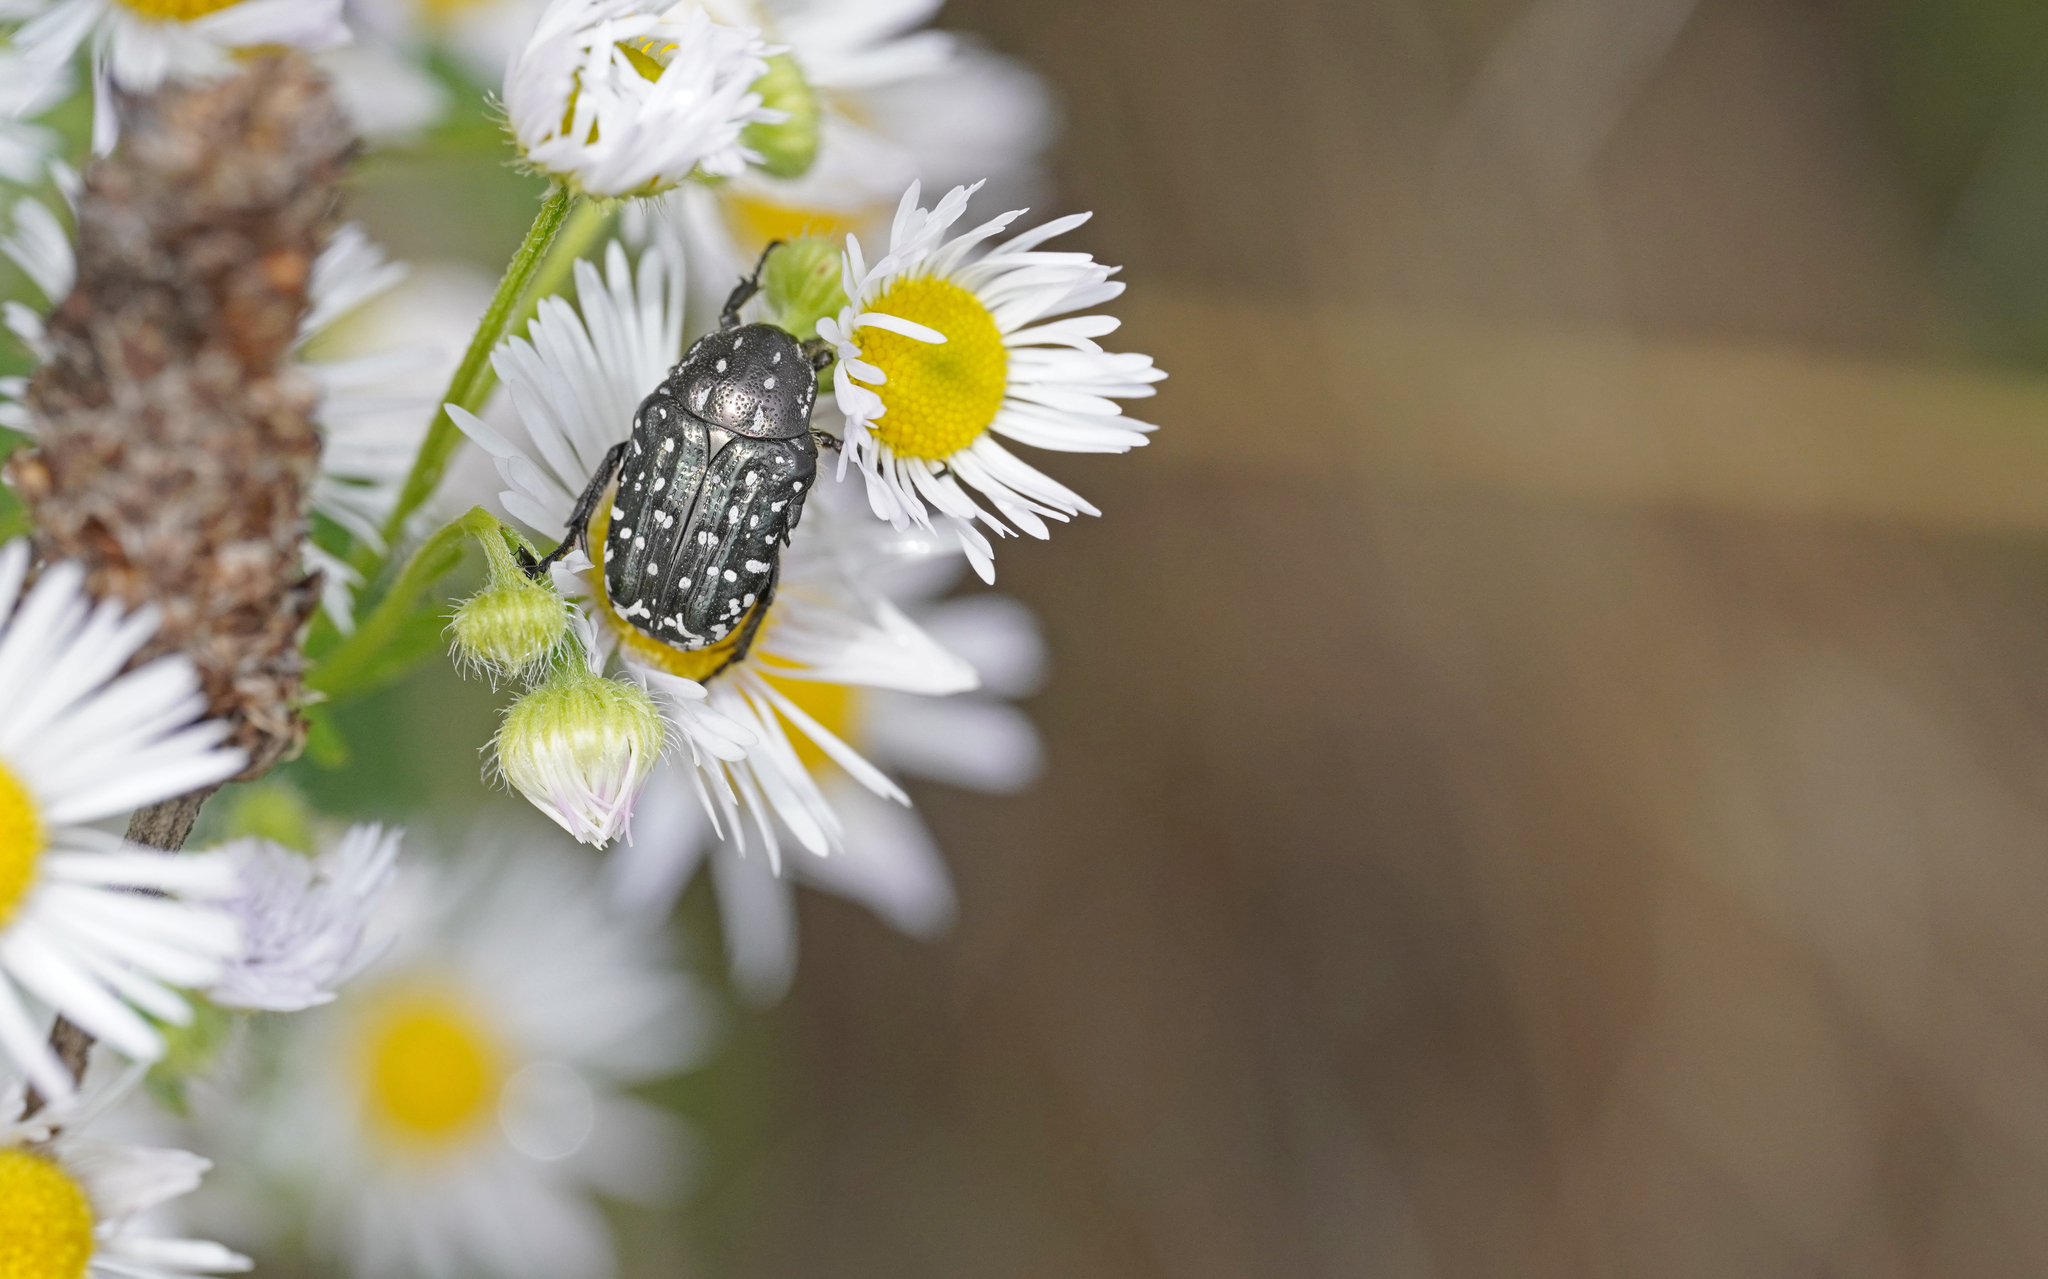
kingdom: Animalia
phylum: Arthropoda
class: Insecta
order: Coleoptera
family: Scarabaeidae
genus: Oxythyrea
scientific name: Oxythyrea funesta
